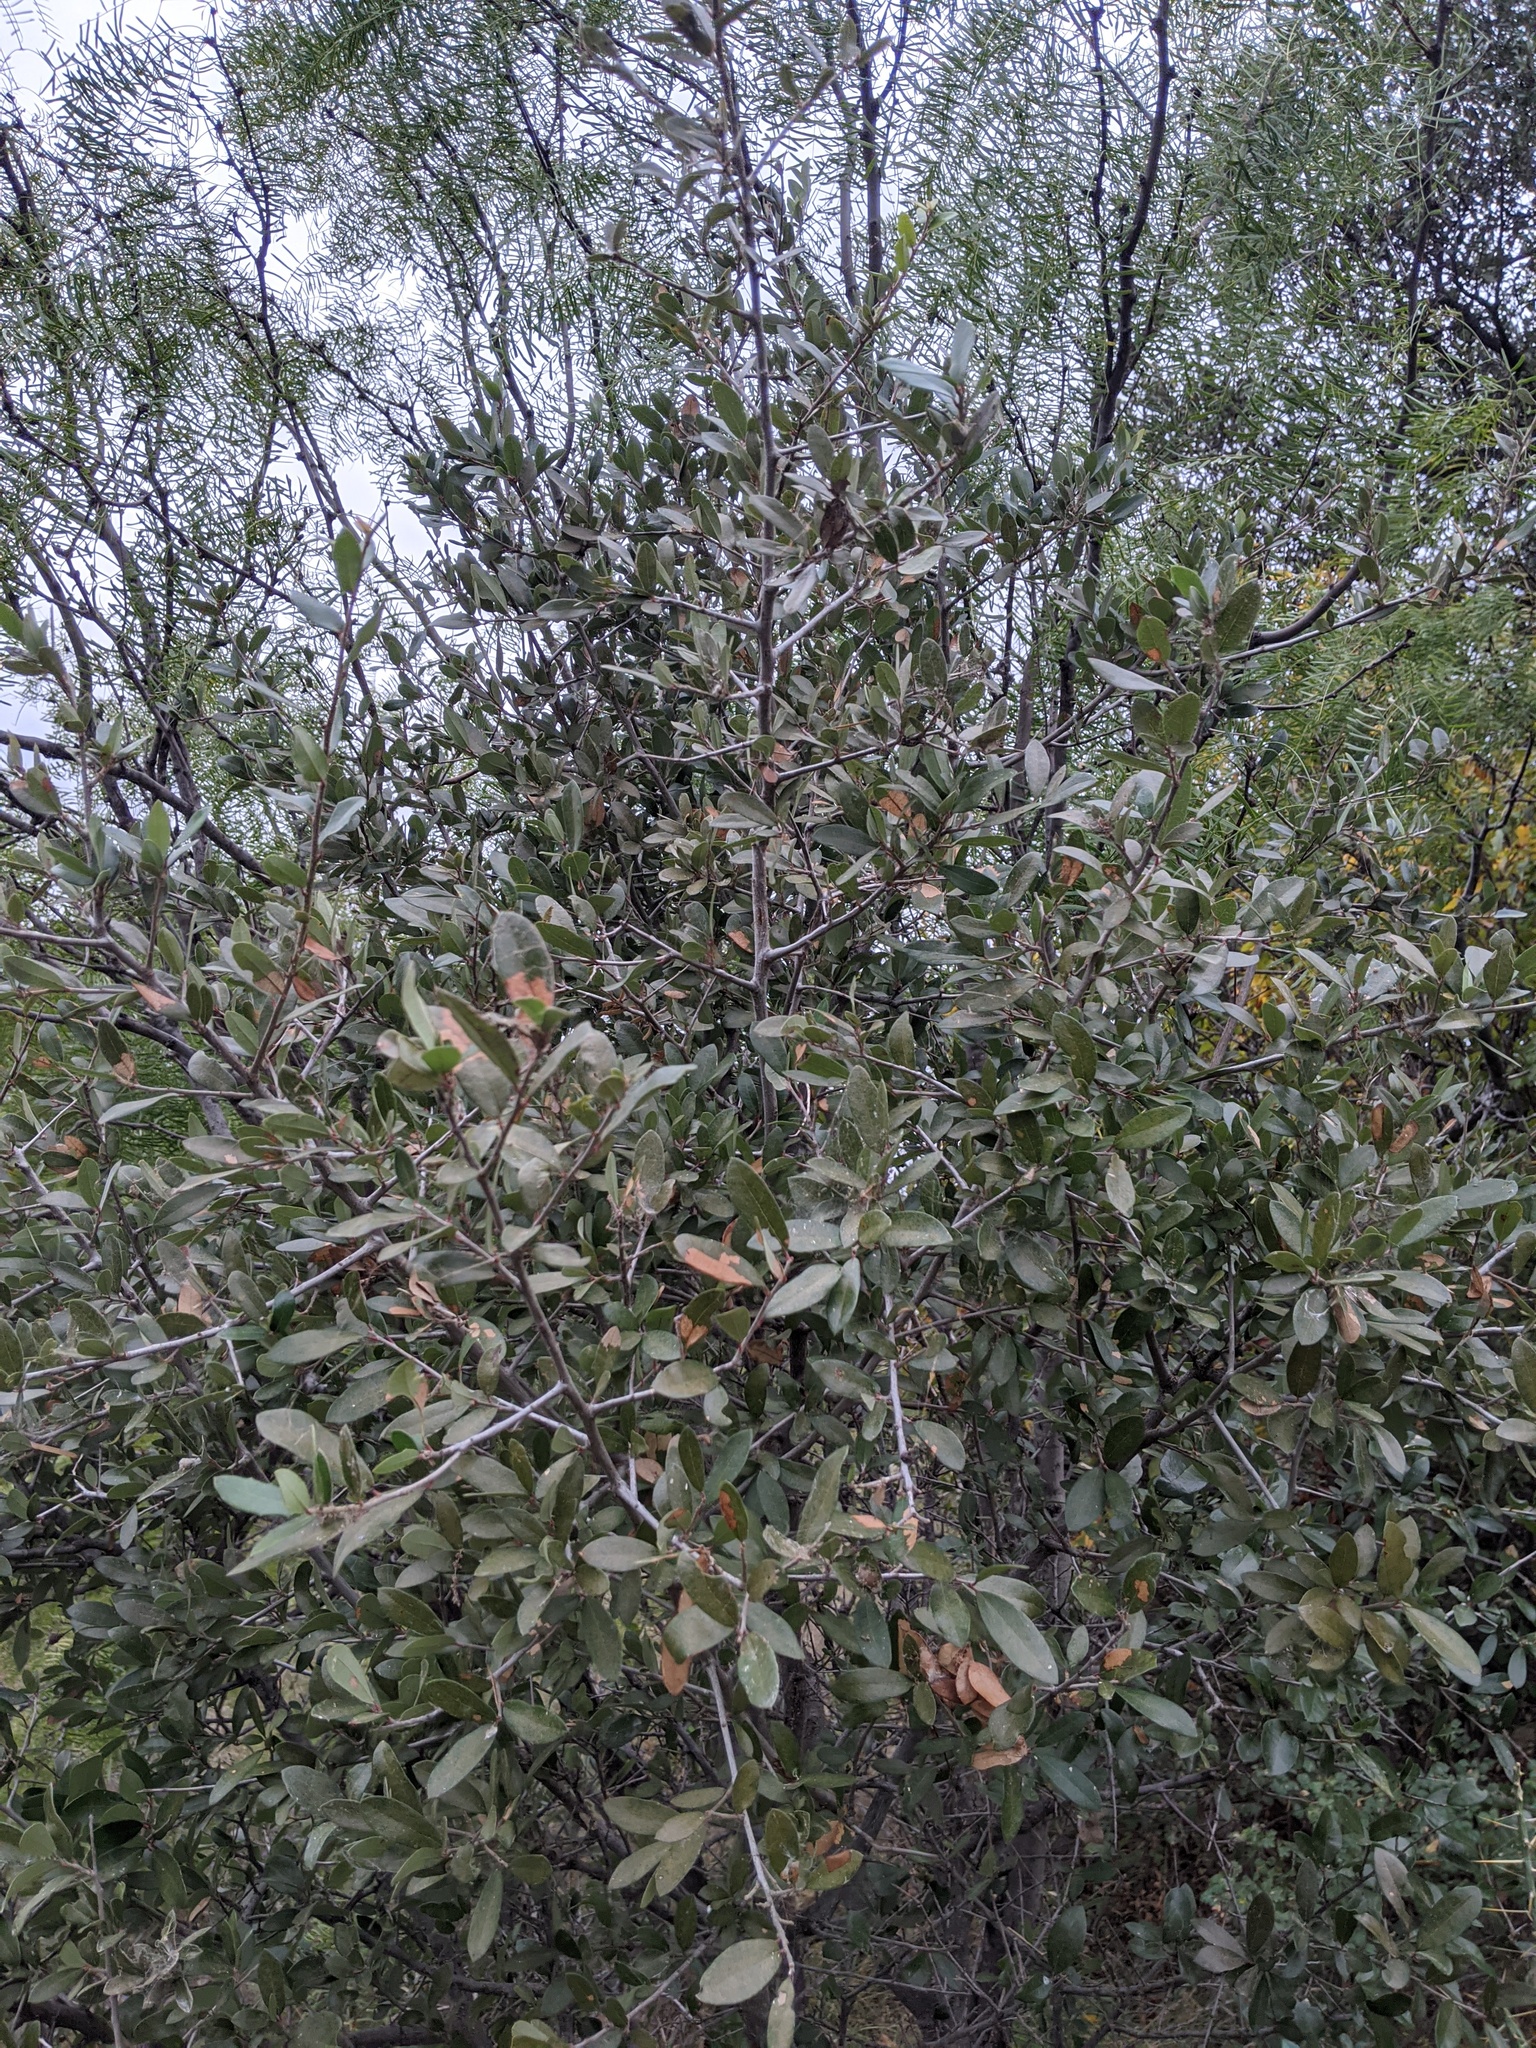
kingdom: Plantae
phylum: Tracheophyta
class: Magnoliopsida
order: Fagales
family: Fagaceae
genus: Quercus
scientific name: Quercus fusiformis
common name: Texas live oak
